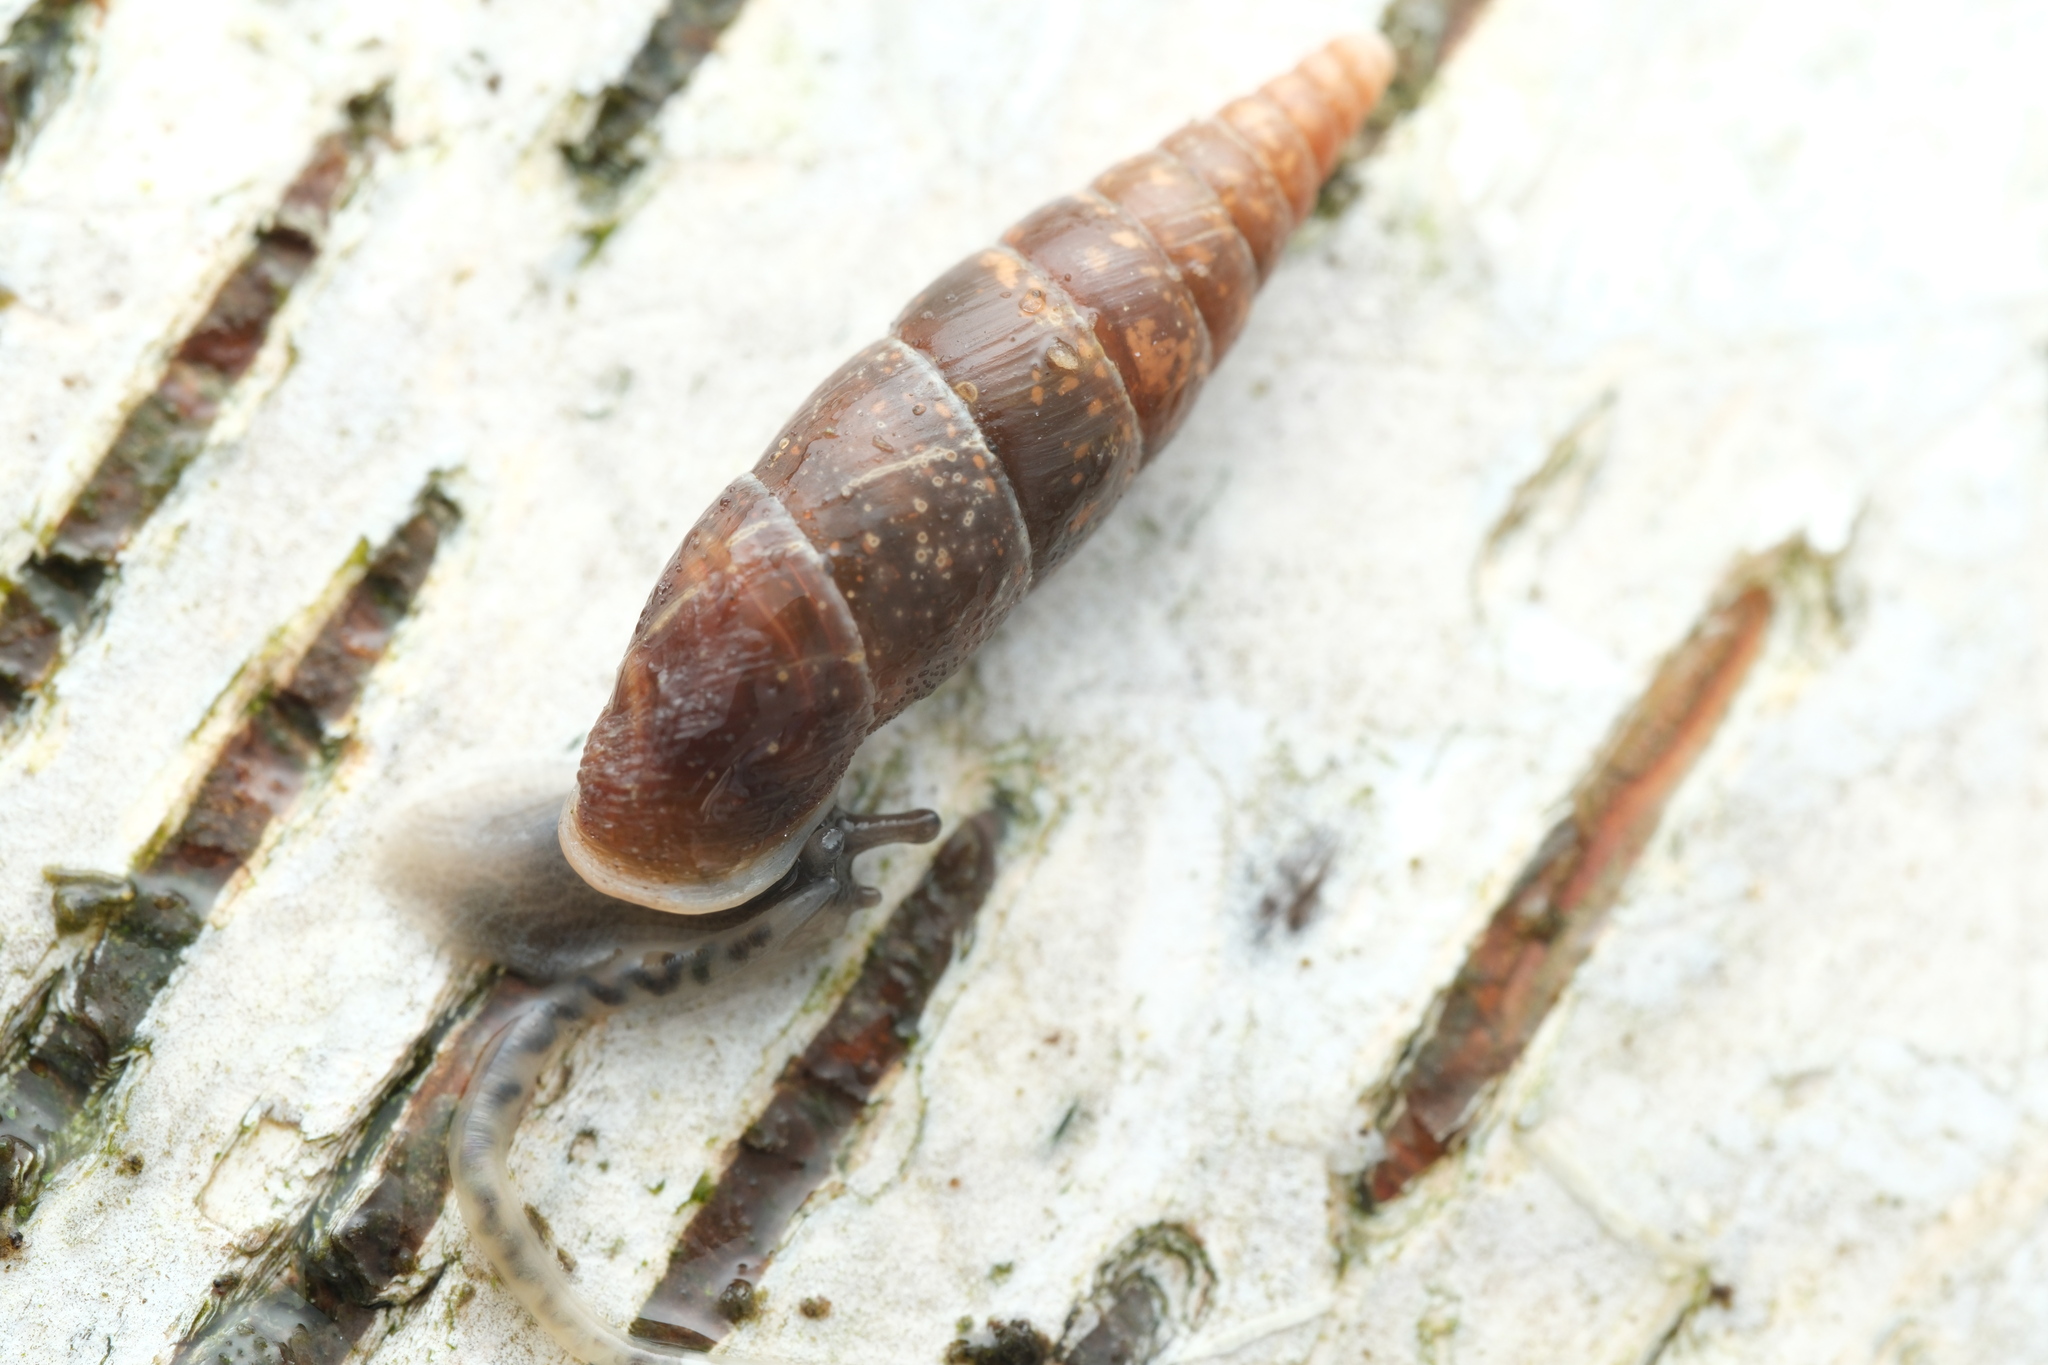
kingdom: Animalia
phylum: Mollusca
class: Gastropoda
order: Stylommatophora
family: Clausiliidae
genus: Cochlodina
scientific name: Cochlodina laminata
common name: Plaited door snail
